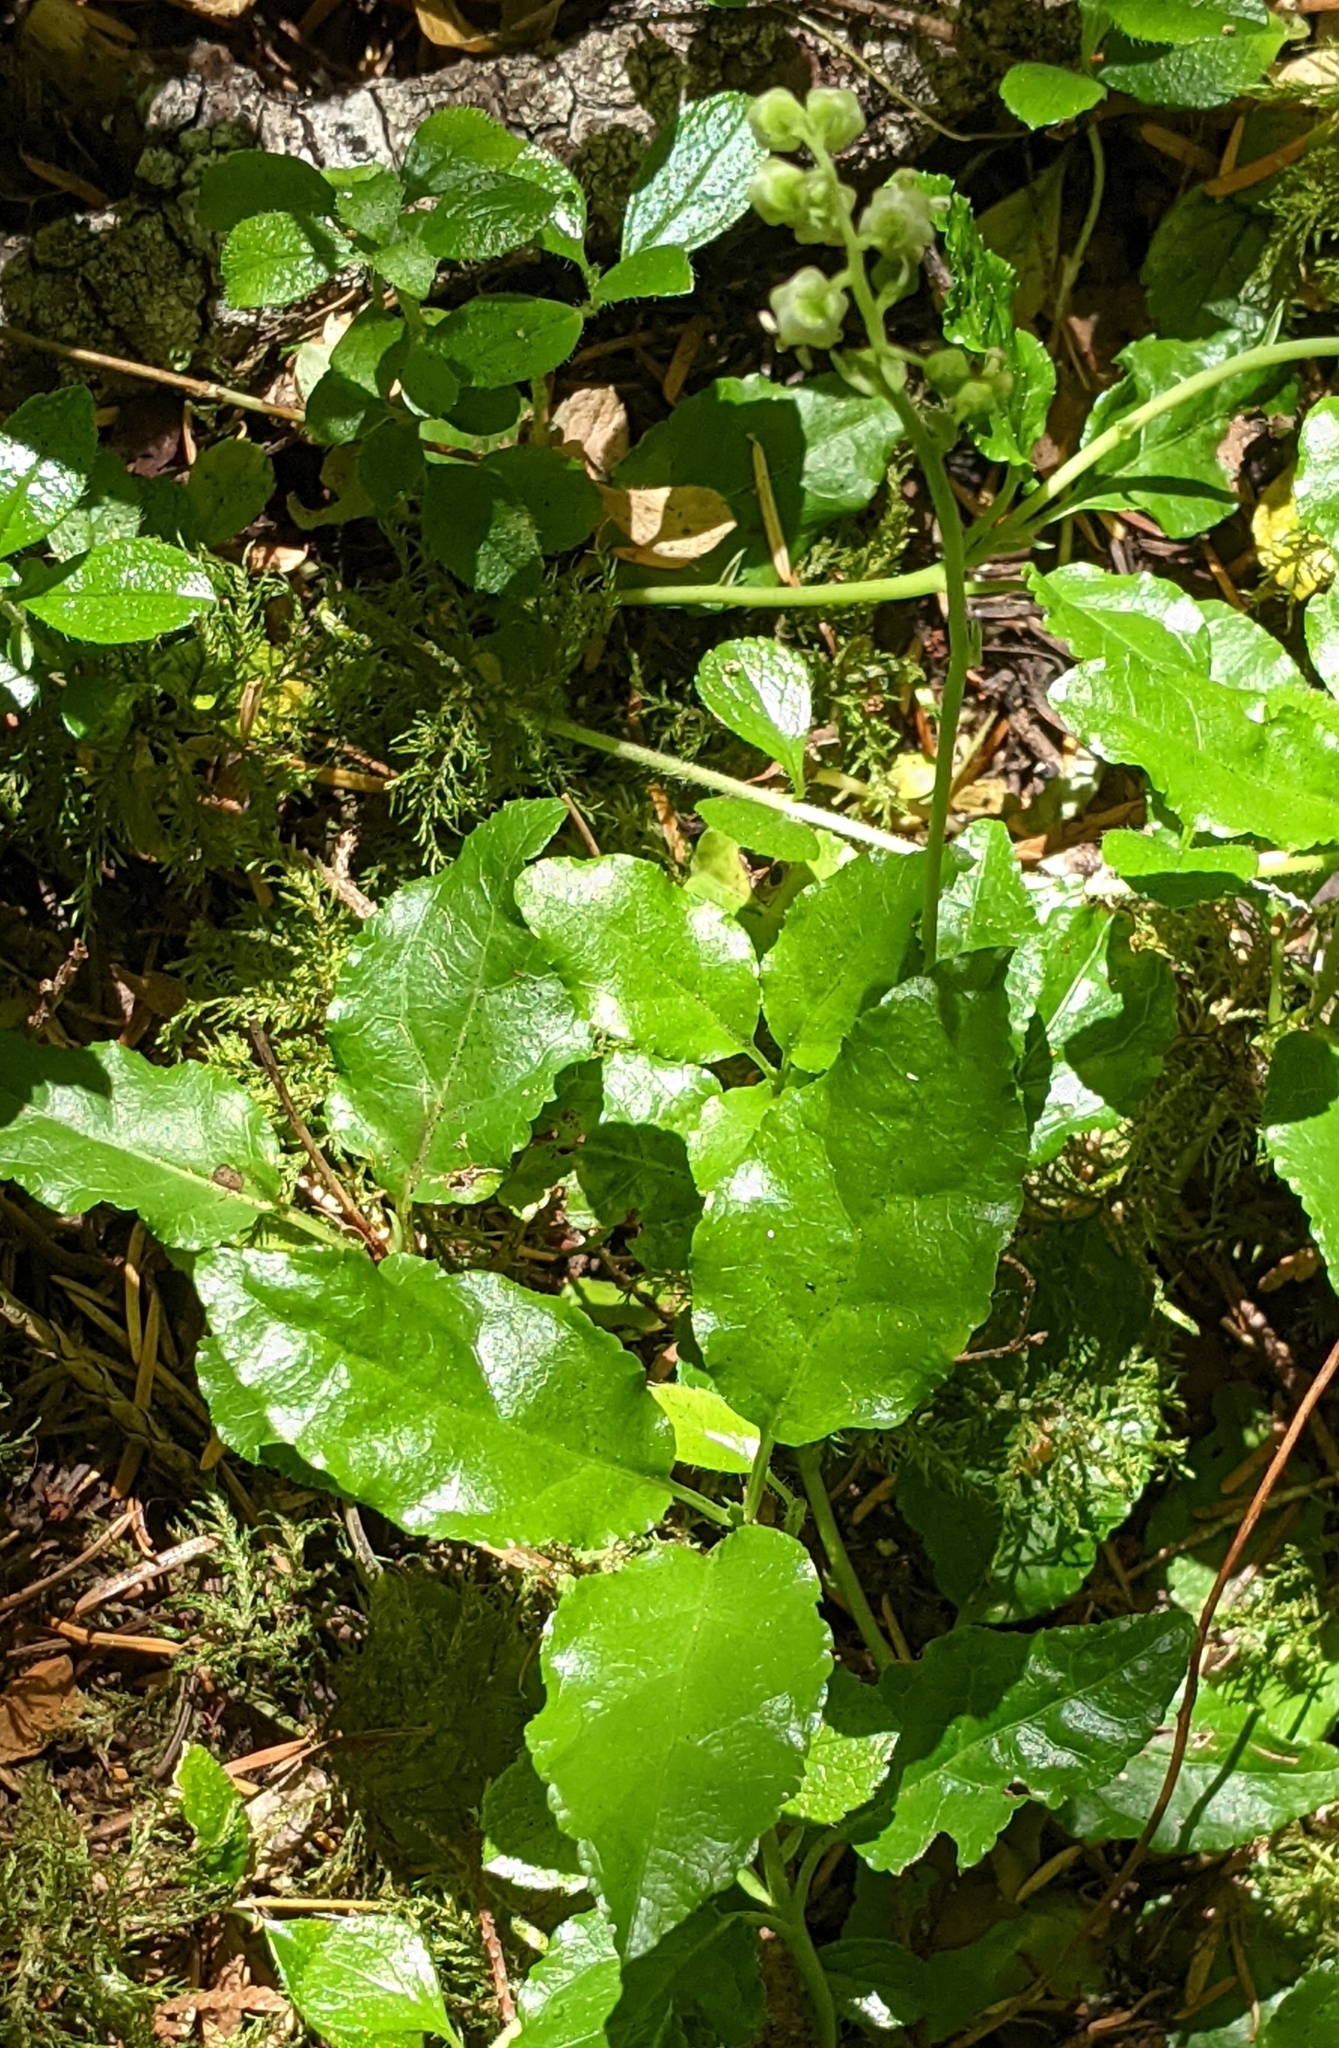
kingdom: Plantae
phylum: Tracheophyta
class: Magnoliopsida
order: Ericales
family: Ericaceae
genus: Orthilia
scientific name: Orthilia secunda
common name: One-sided orthilia
